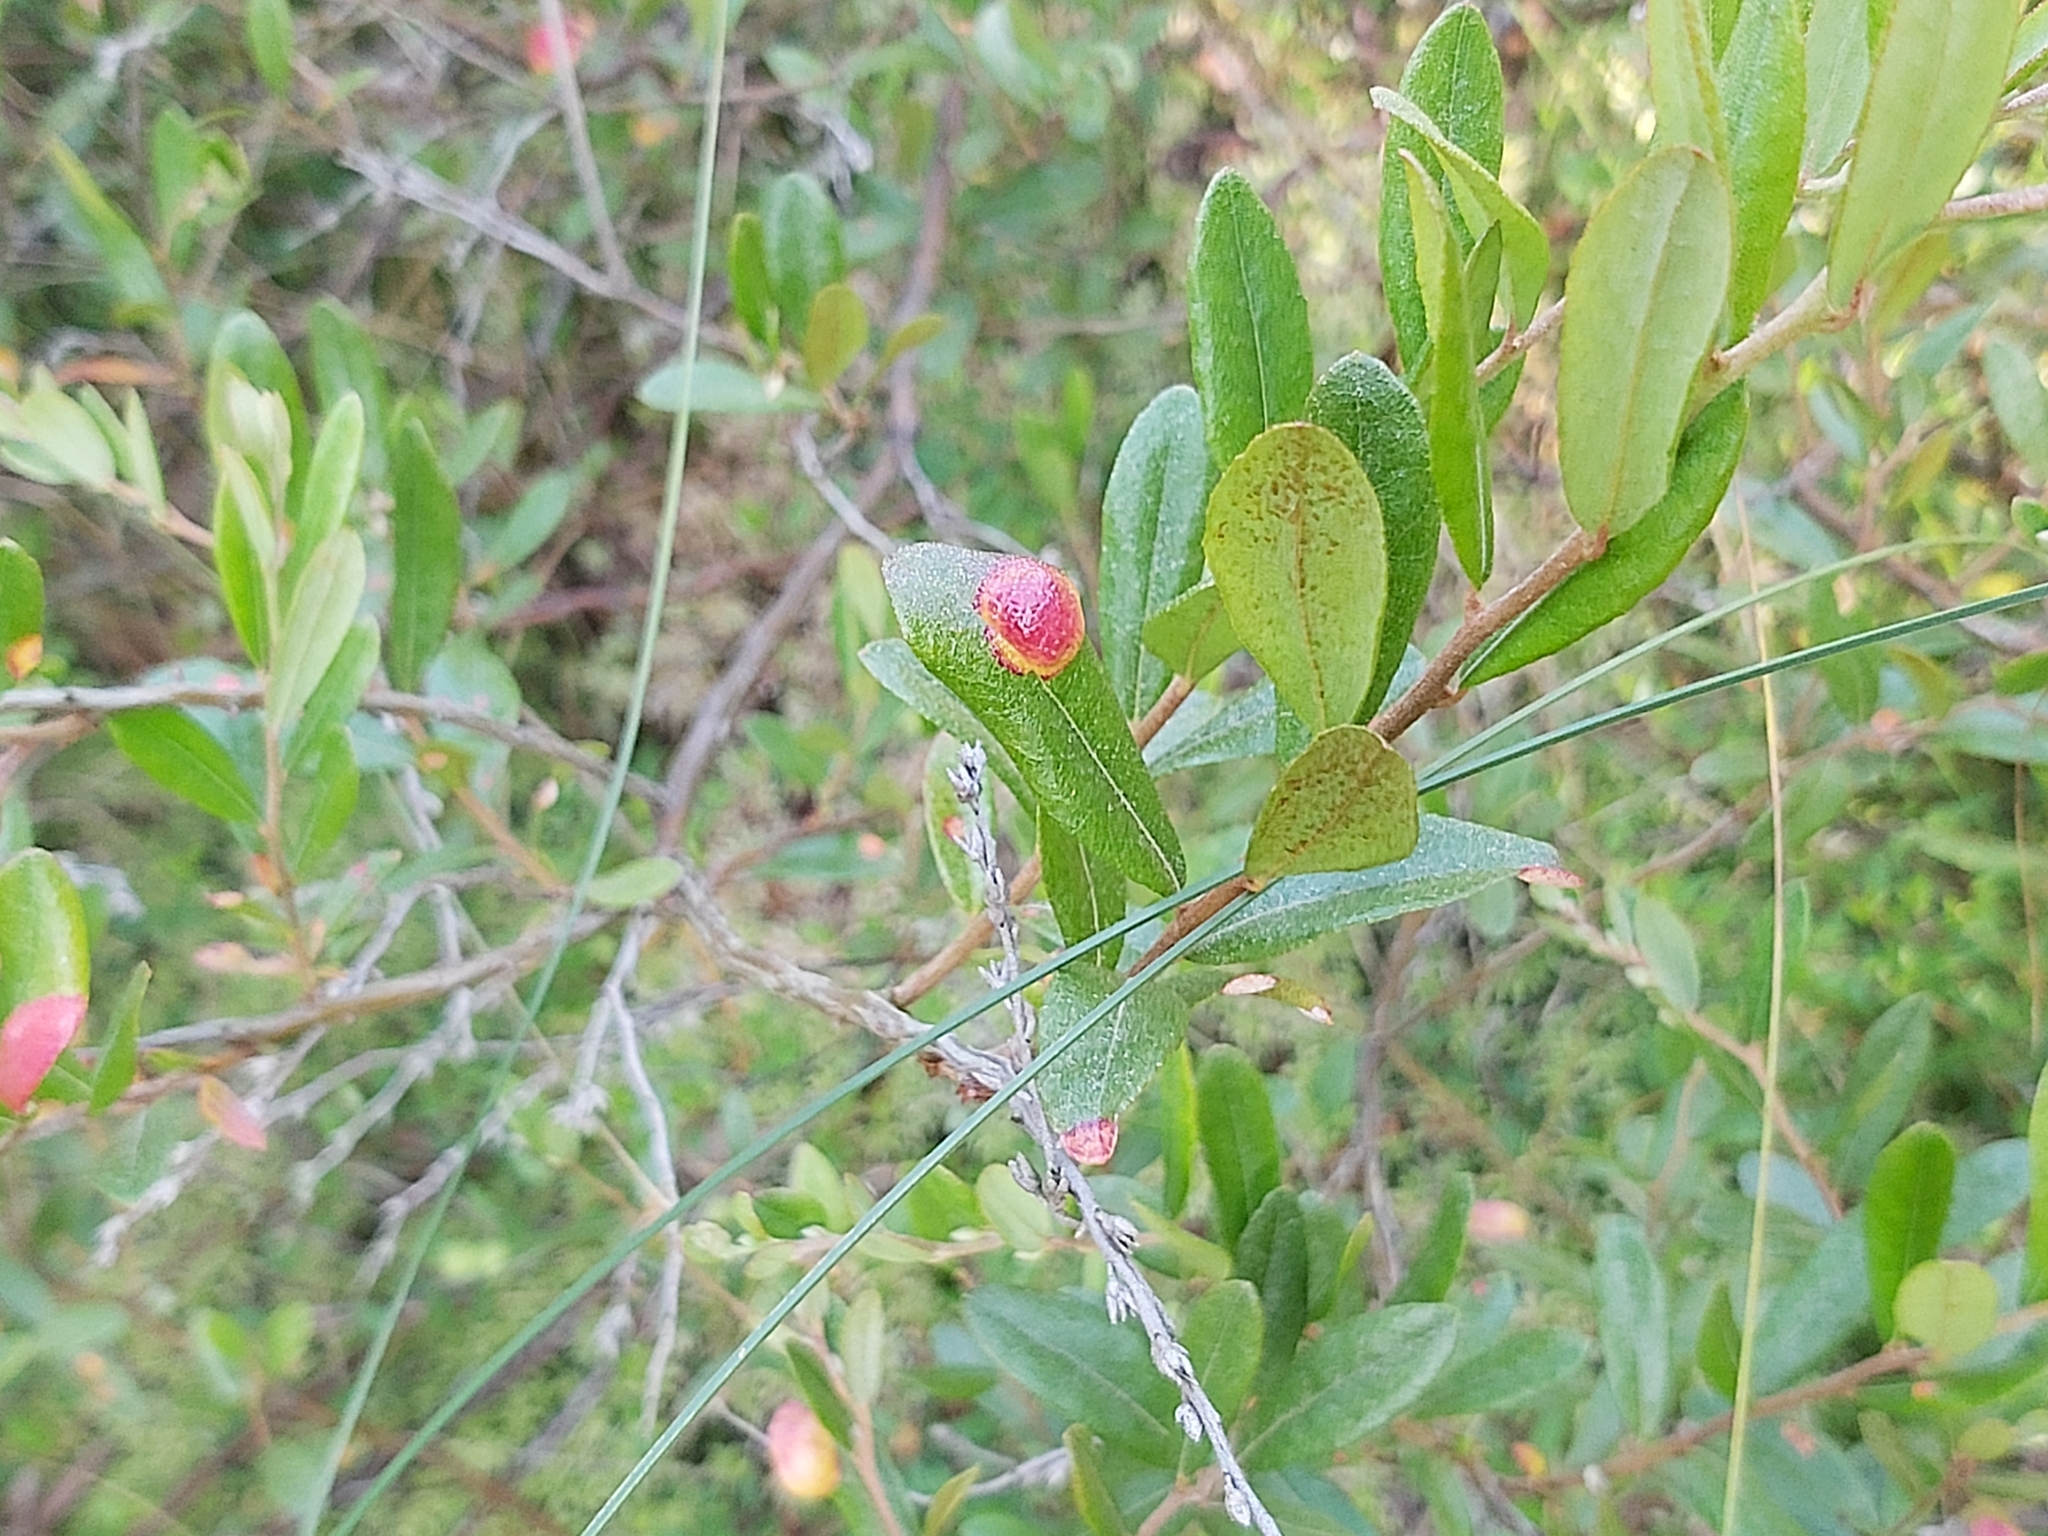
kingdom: Fungi
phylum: Basidiomycota
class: Exobasidiomycetes
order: Exobasidiales
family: Exobasidiaceae
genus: Exobasidium
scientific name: Exobasidium cassandrae
